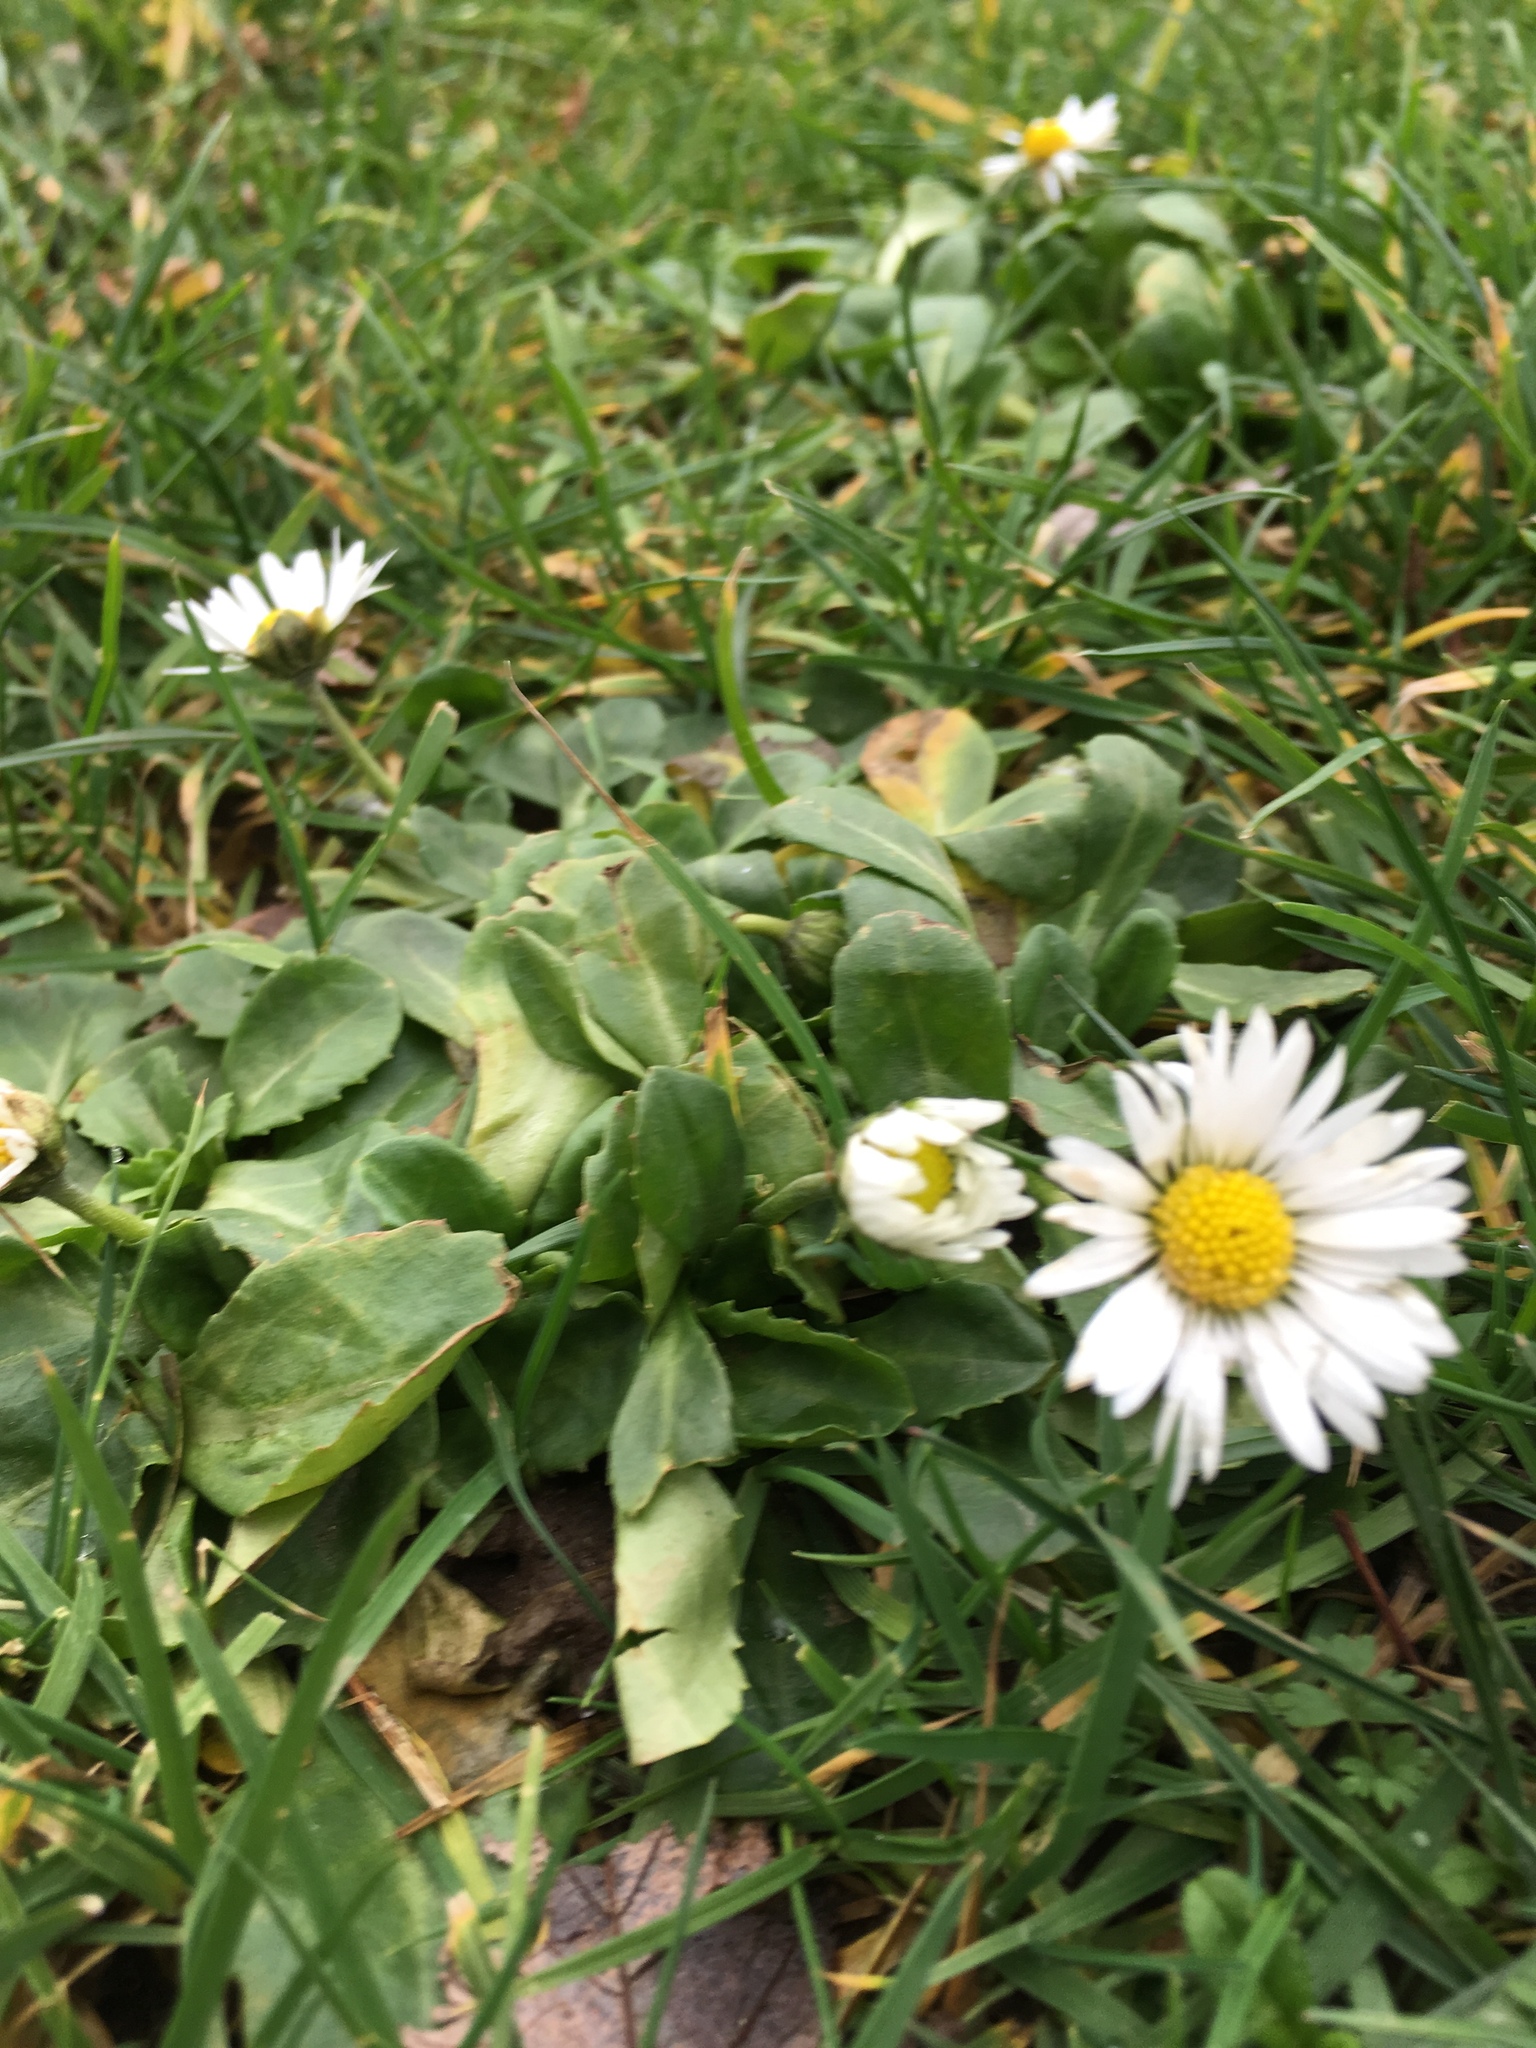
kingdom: Plantae
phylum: Tracheophyta
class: Magnoliopsida
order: Asterales
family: Asteraceae
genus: Bellis
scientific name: Bellis perennis
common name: Lawndaisy
